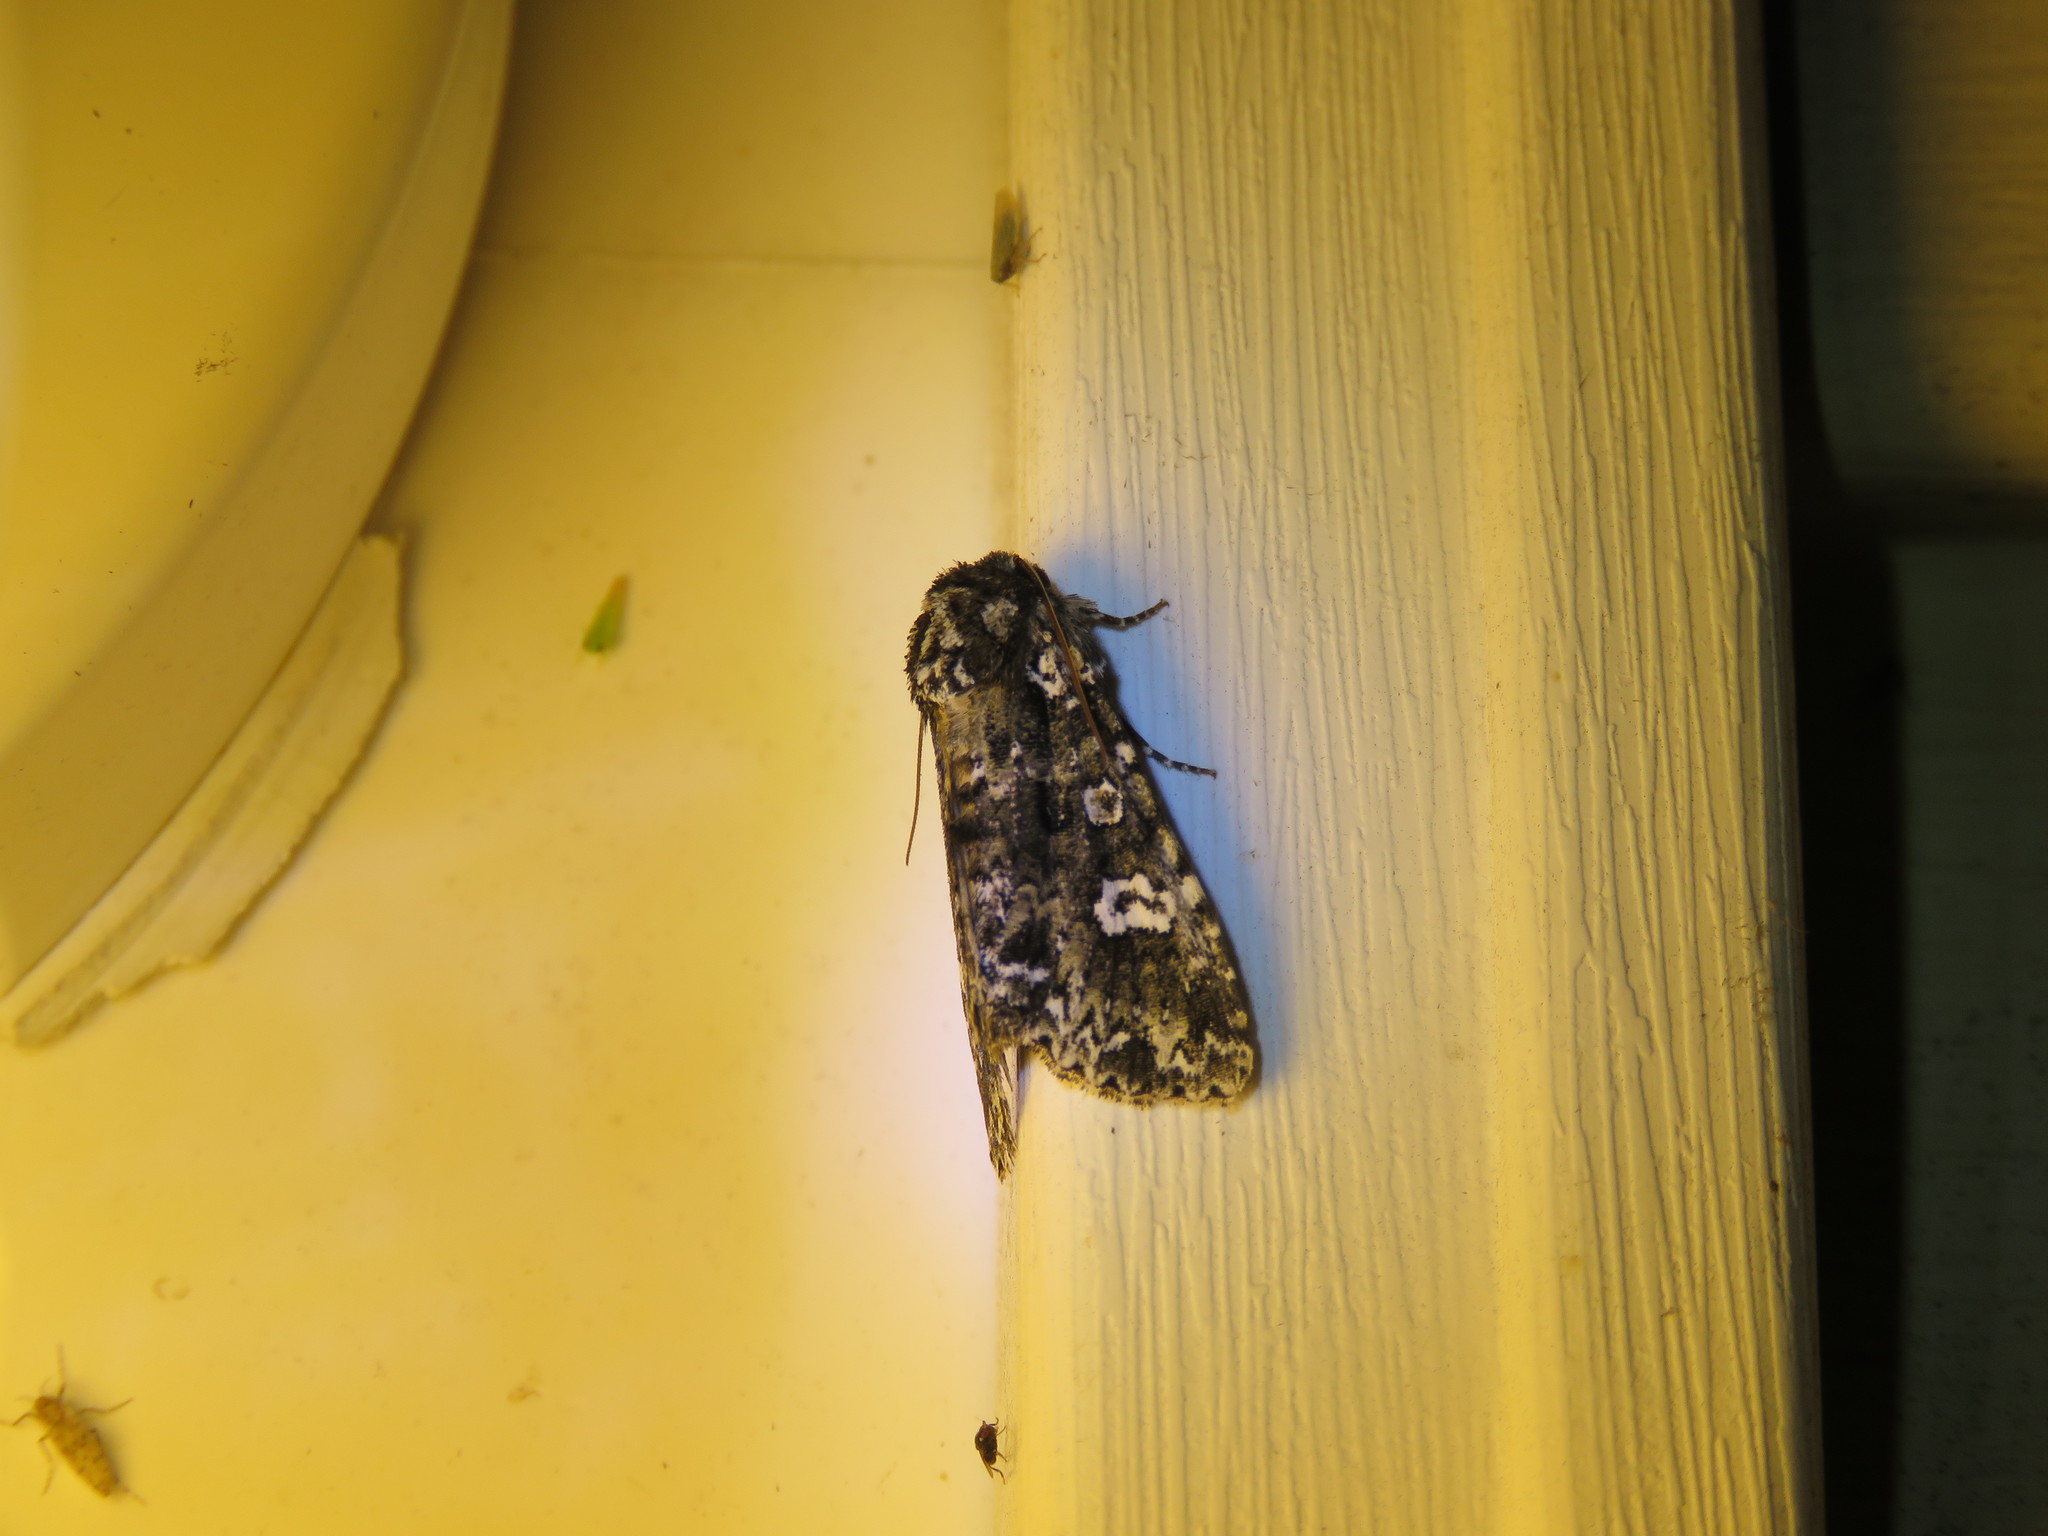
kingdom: Animalia
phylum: Arthropoda
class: Insecta
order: Lepidoptera
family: Noctuidae
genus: Melanchra
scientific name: Melanchra adjuncta
